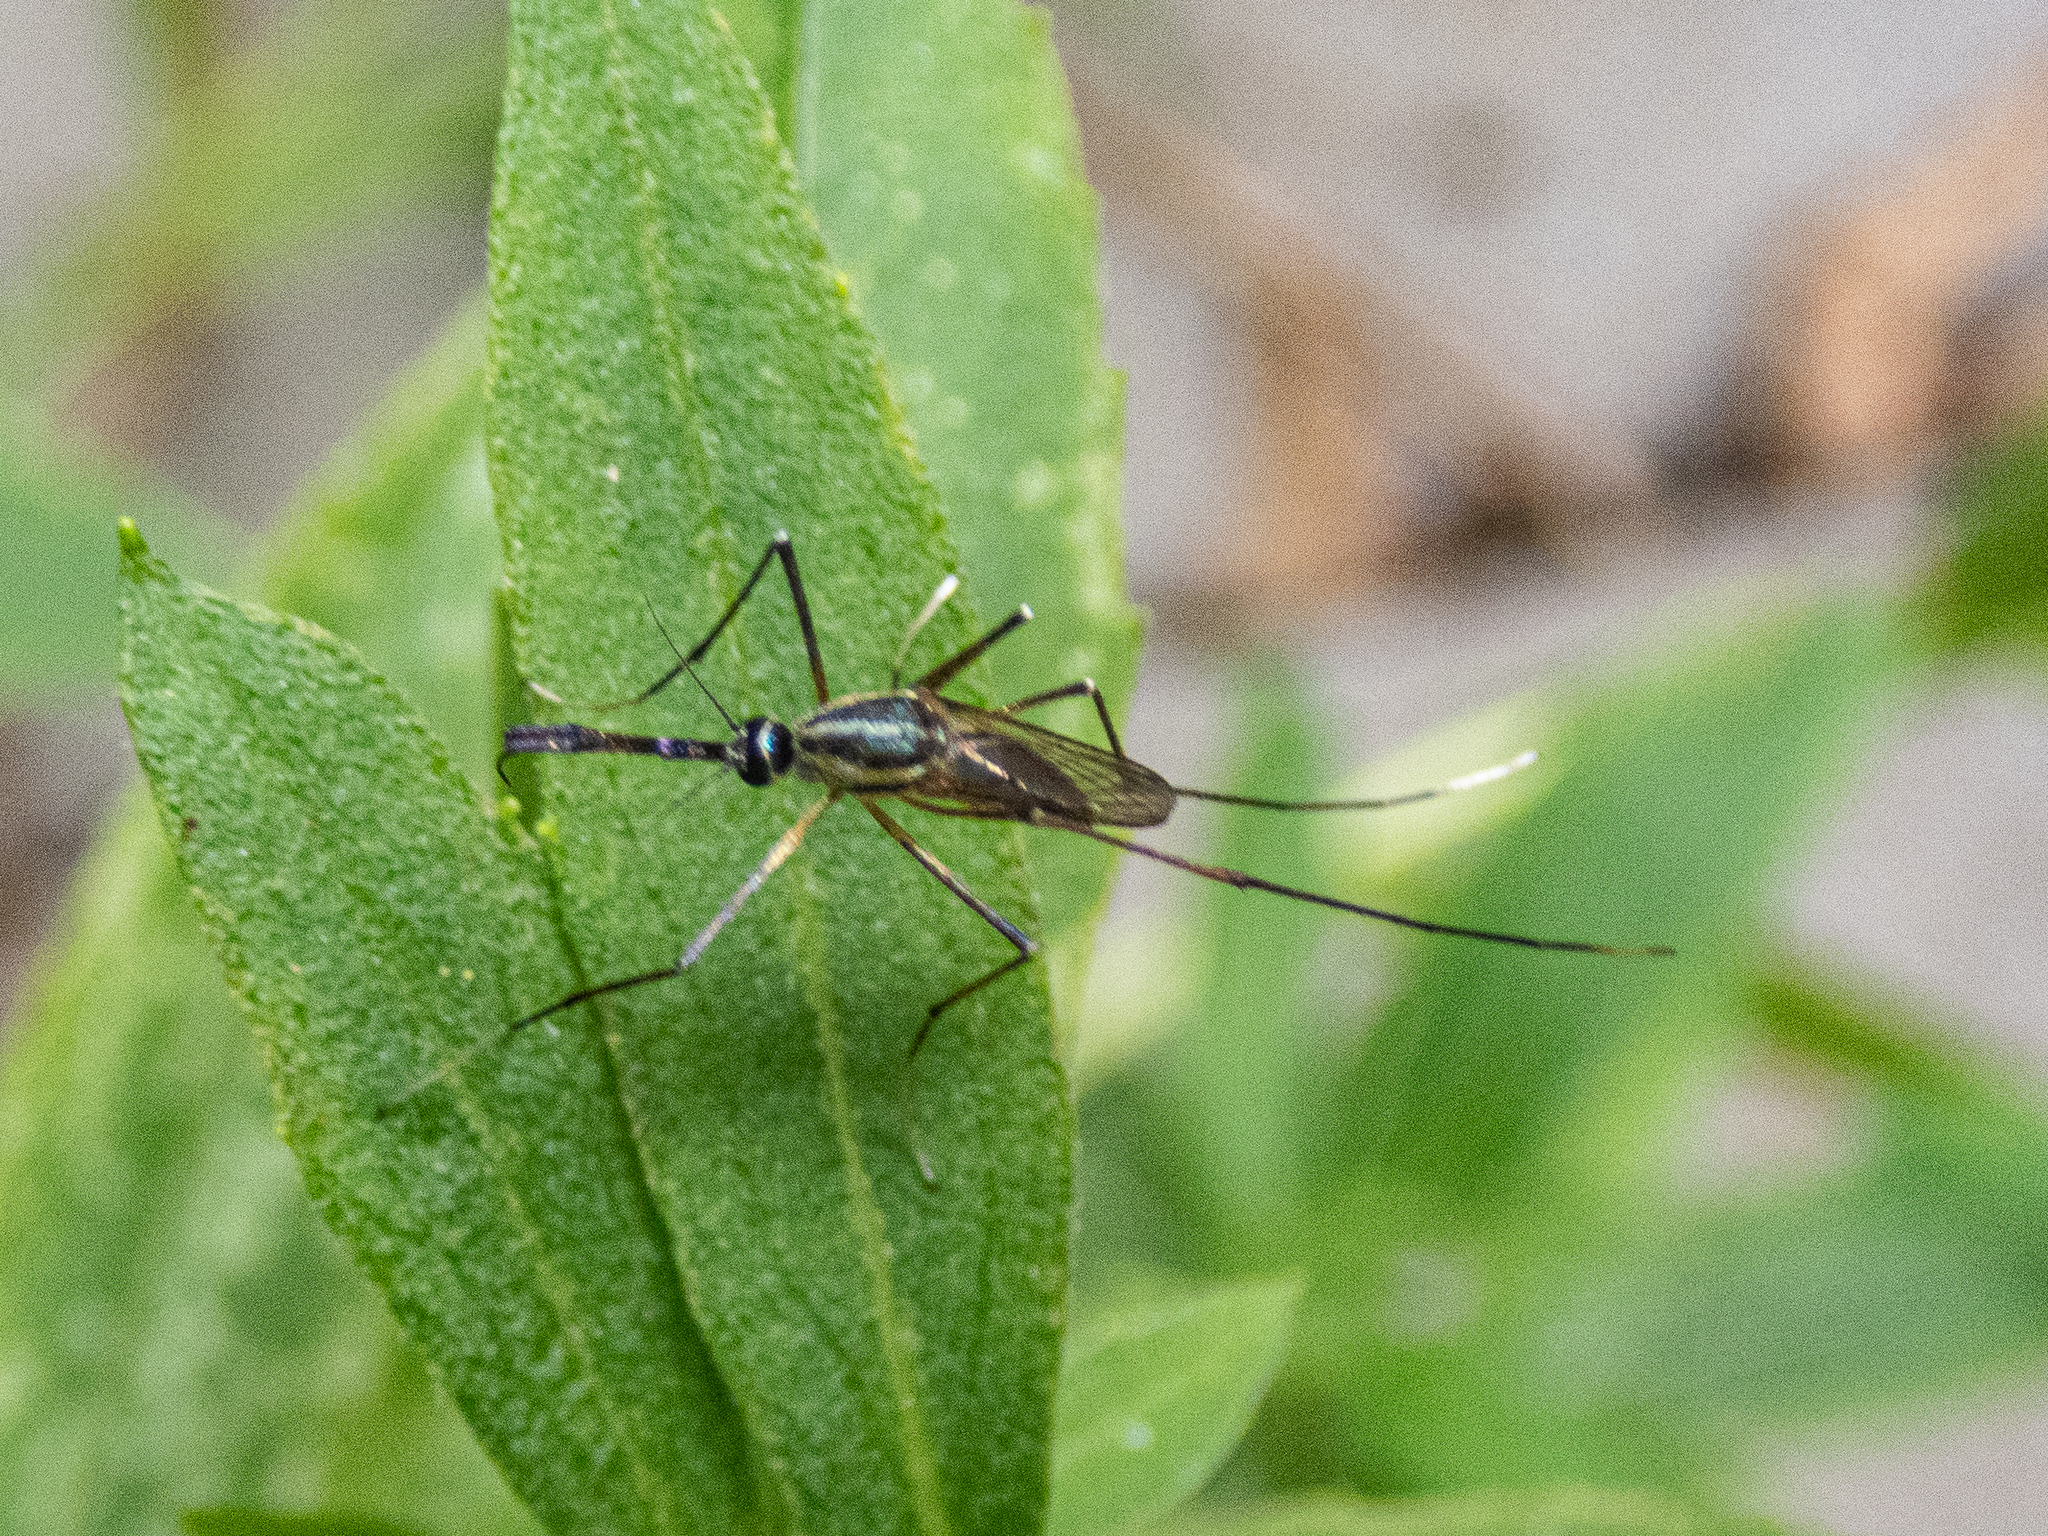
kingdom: Animalia
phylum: Arthropoda
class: Insecta
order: Diptera
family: Culicidae
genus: Toxorhynchites
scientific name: Toxorhynchites rutilus
